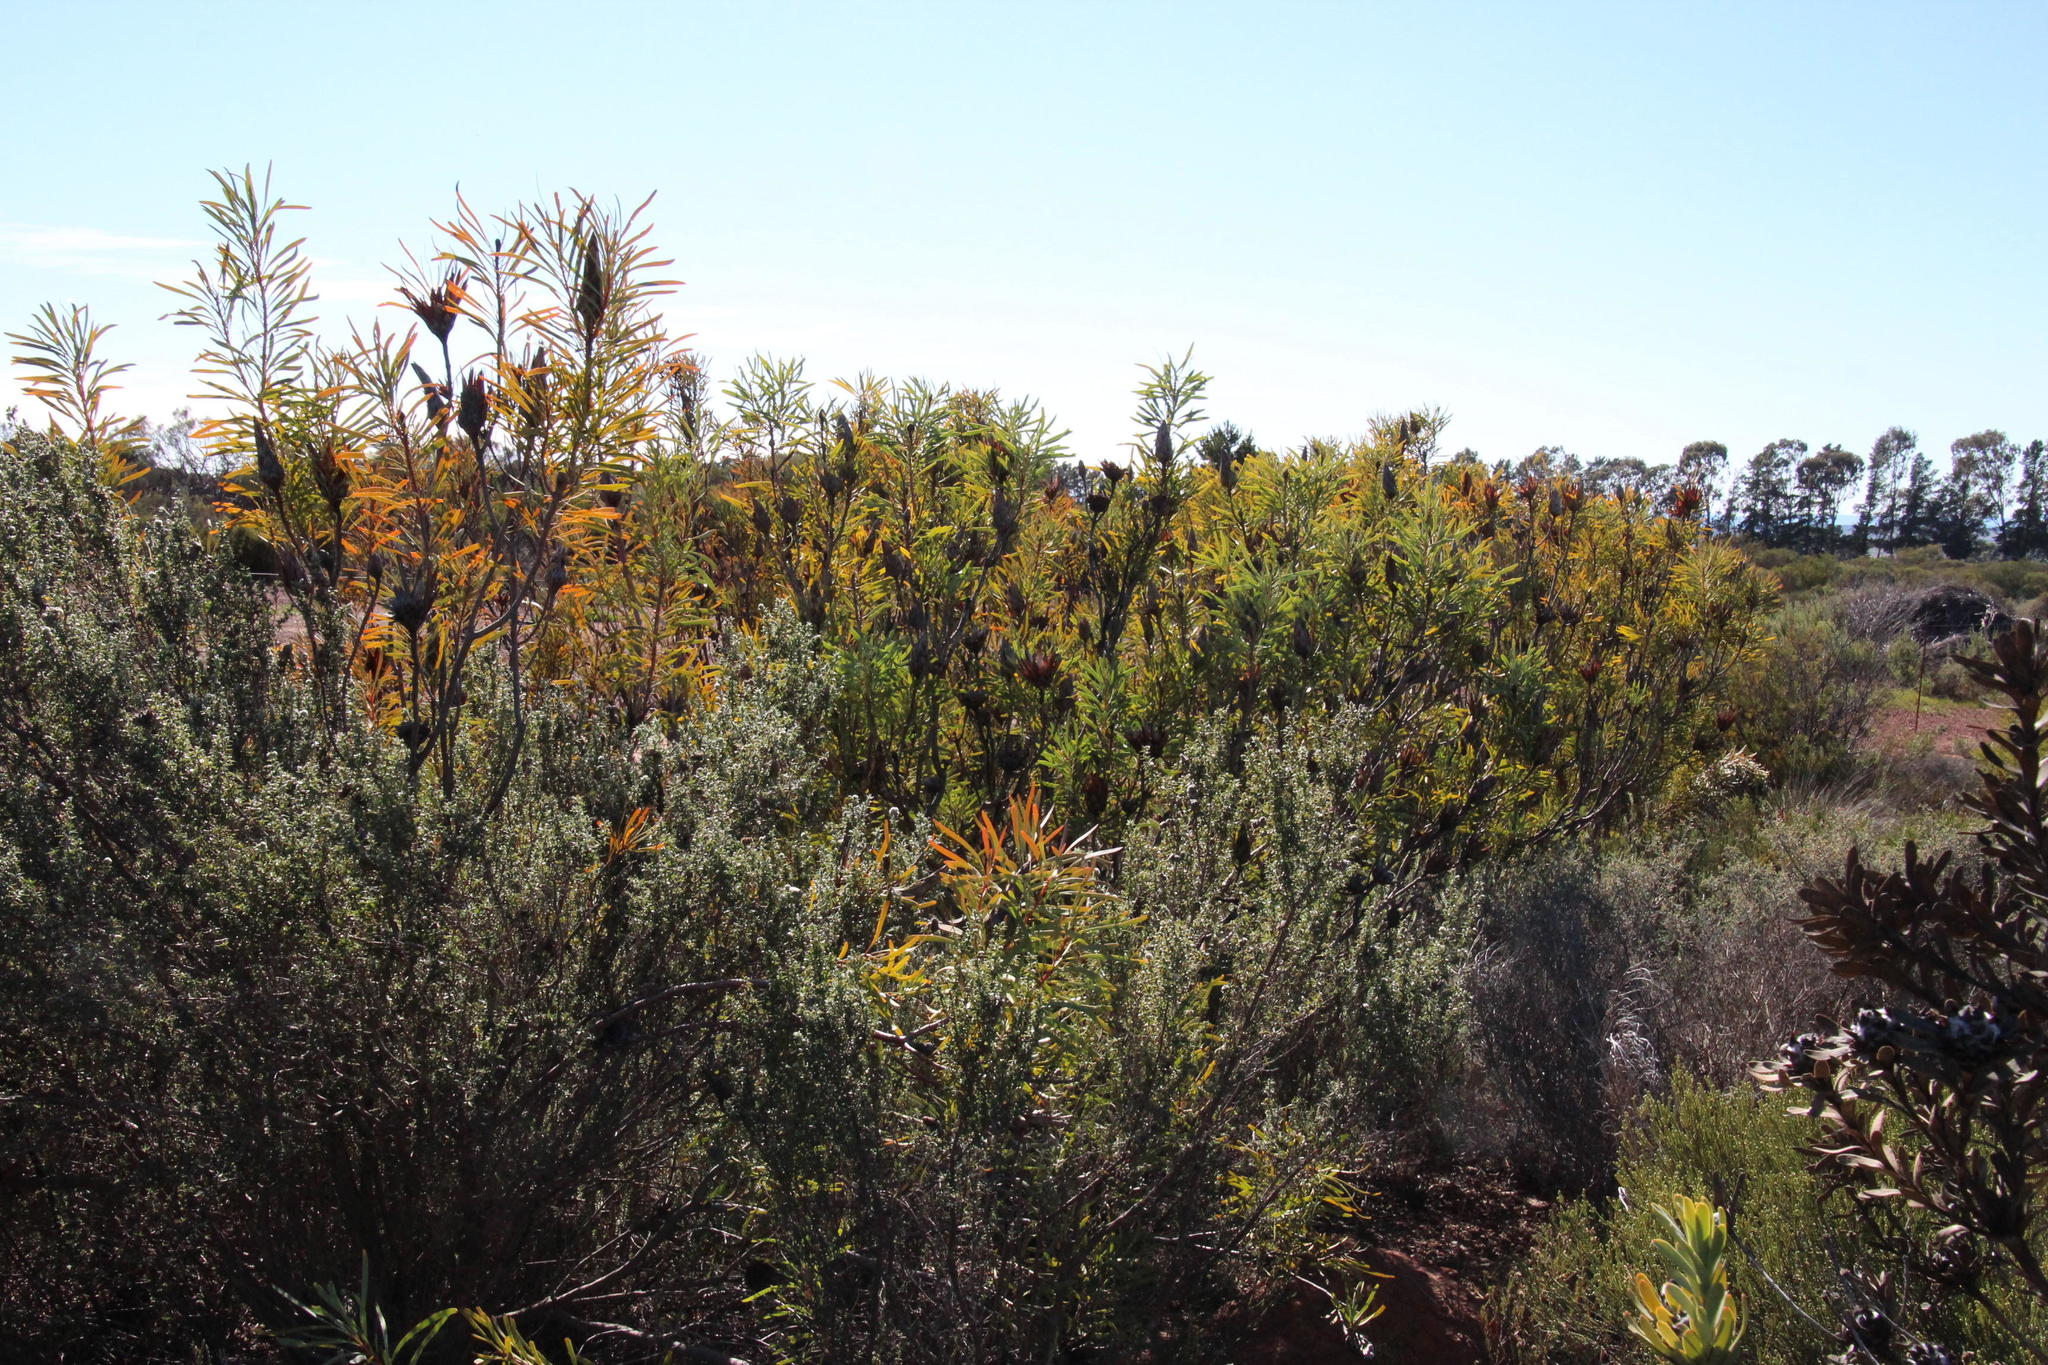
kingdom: Plantae
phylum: Tracheophyta
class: Magnoliopsida
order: Proteales
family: Proteaceae
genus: Protea
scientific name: Protea repens
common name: Sugarbush
